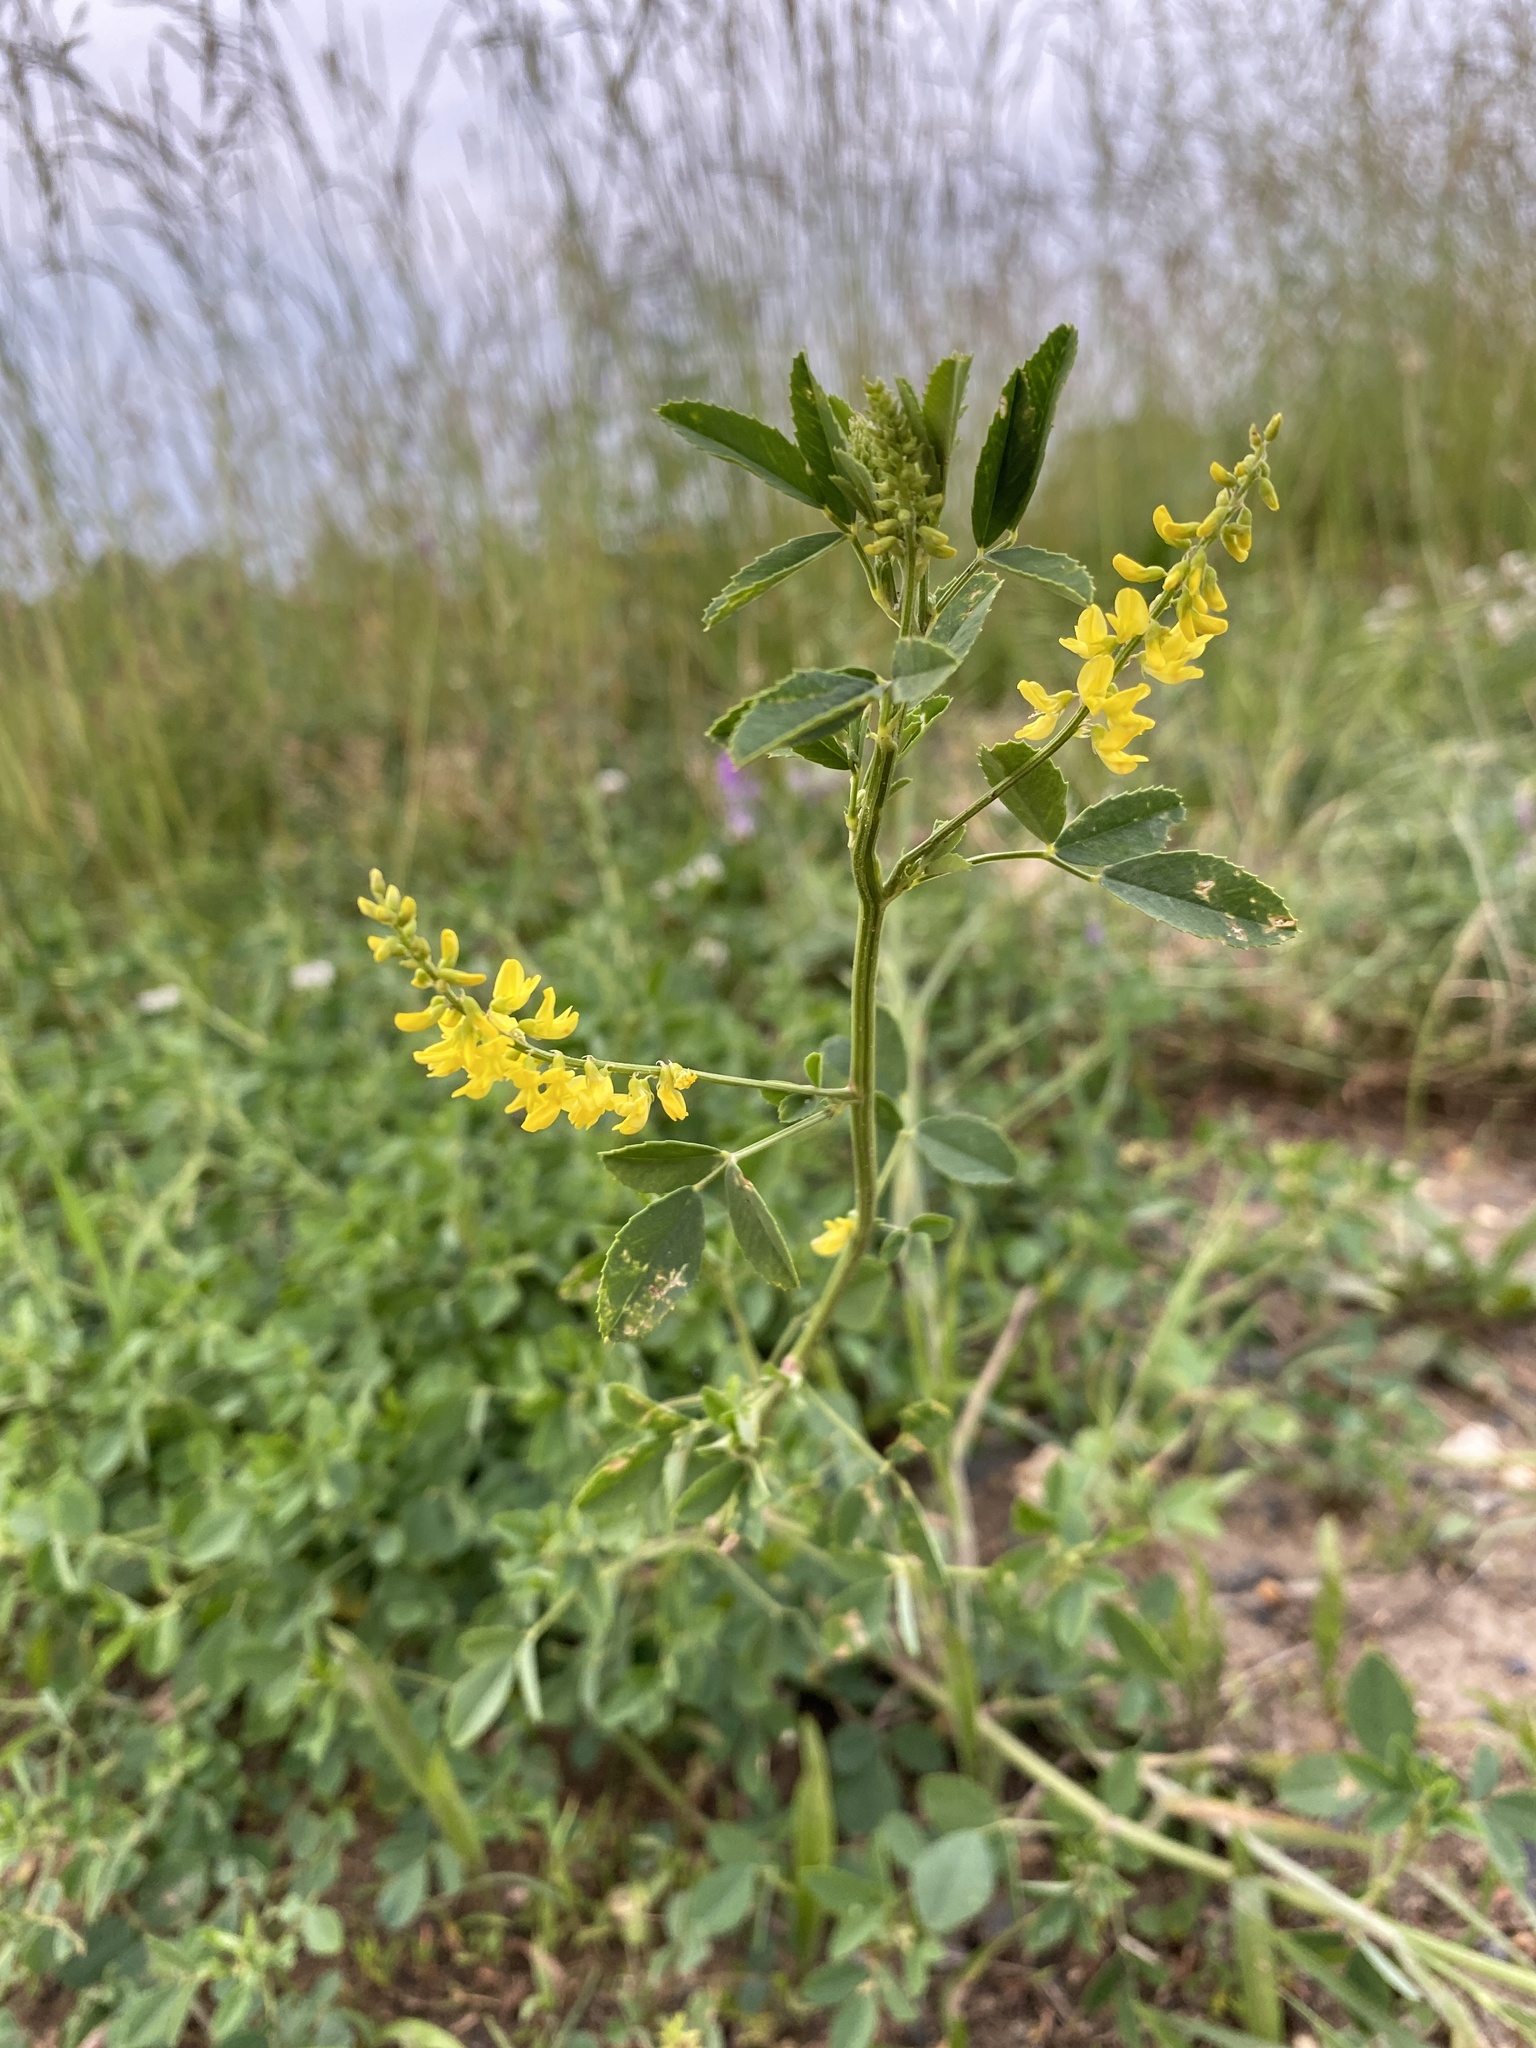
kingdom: Plantae
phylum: Tracheophyta
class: Magnoliopsida
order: Fabales
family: Fabaceae
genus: Melilotus
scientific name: Melilotus officinalis
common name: Sweetclover
